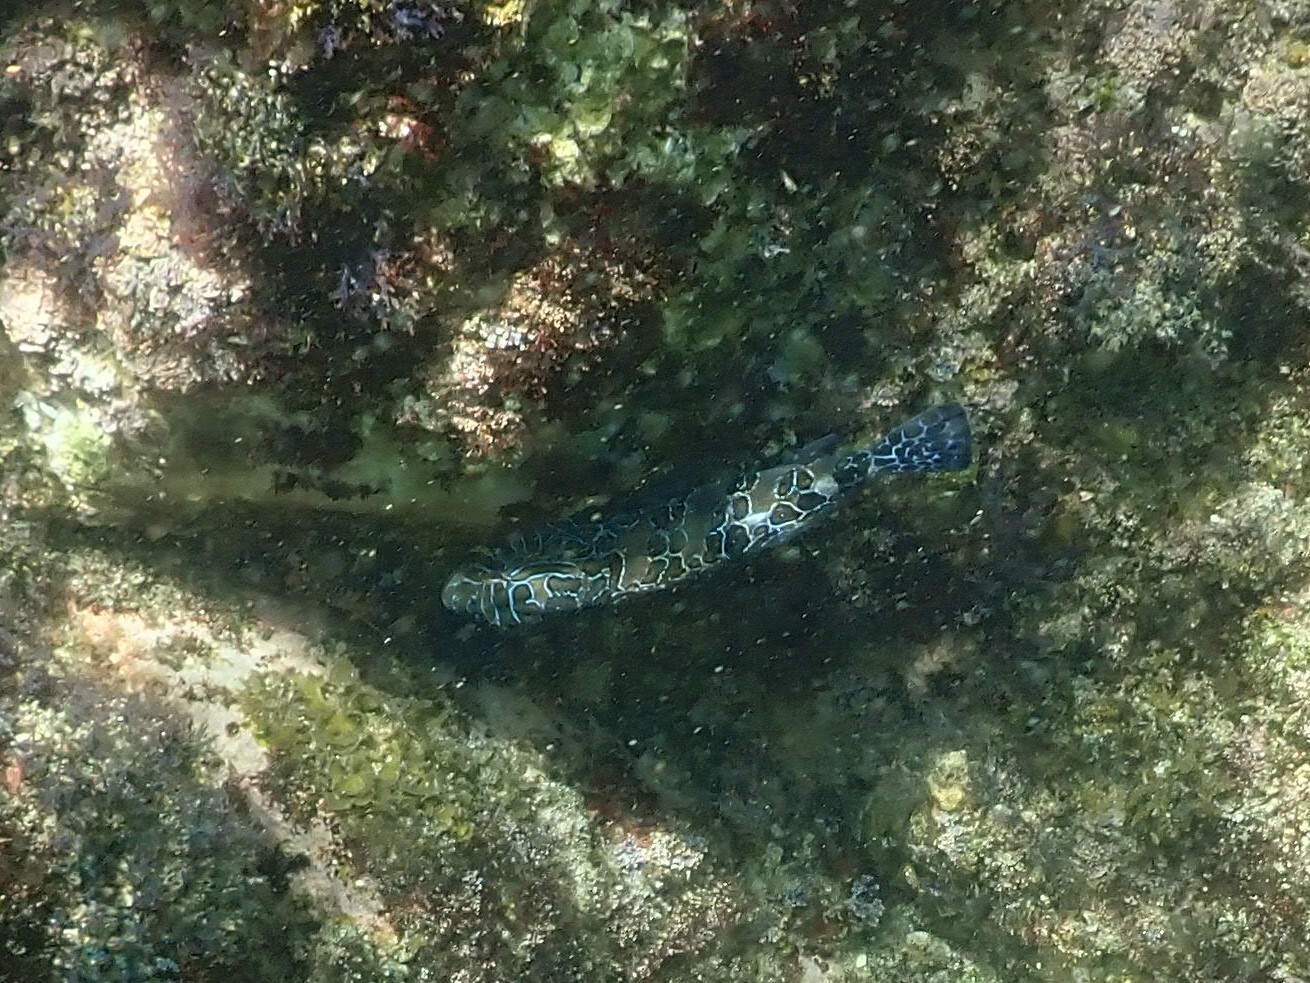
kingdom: Animalia
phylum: Chordata
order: Perciformes
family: Cirrhitidae
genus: Cirrhitus
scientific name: Cirrhitus rivulatus
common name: Giant hawkfish
